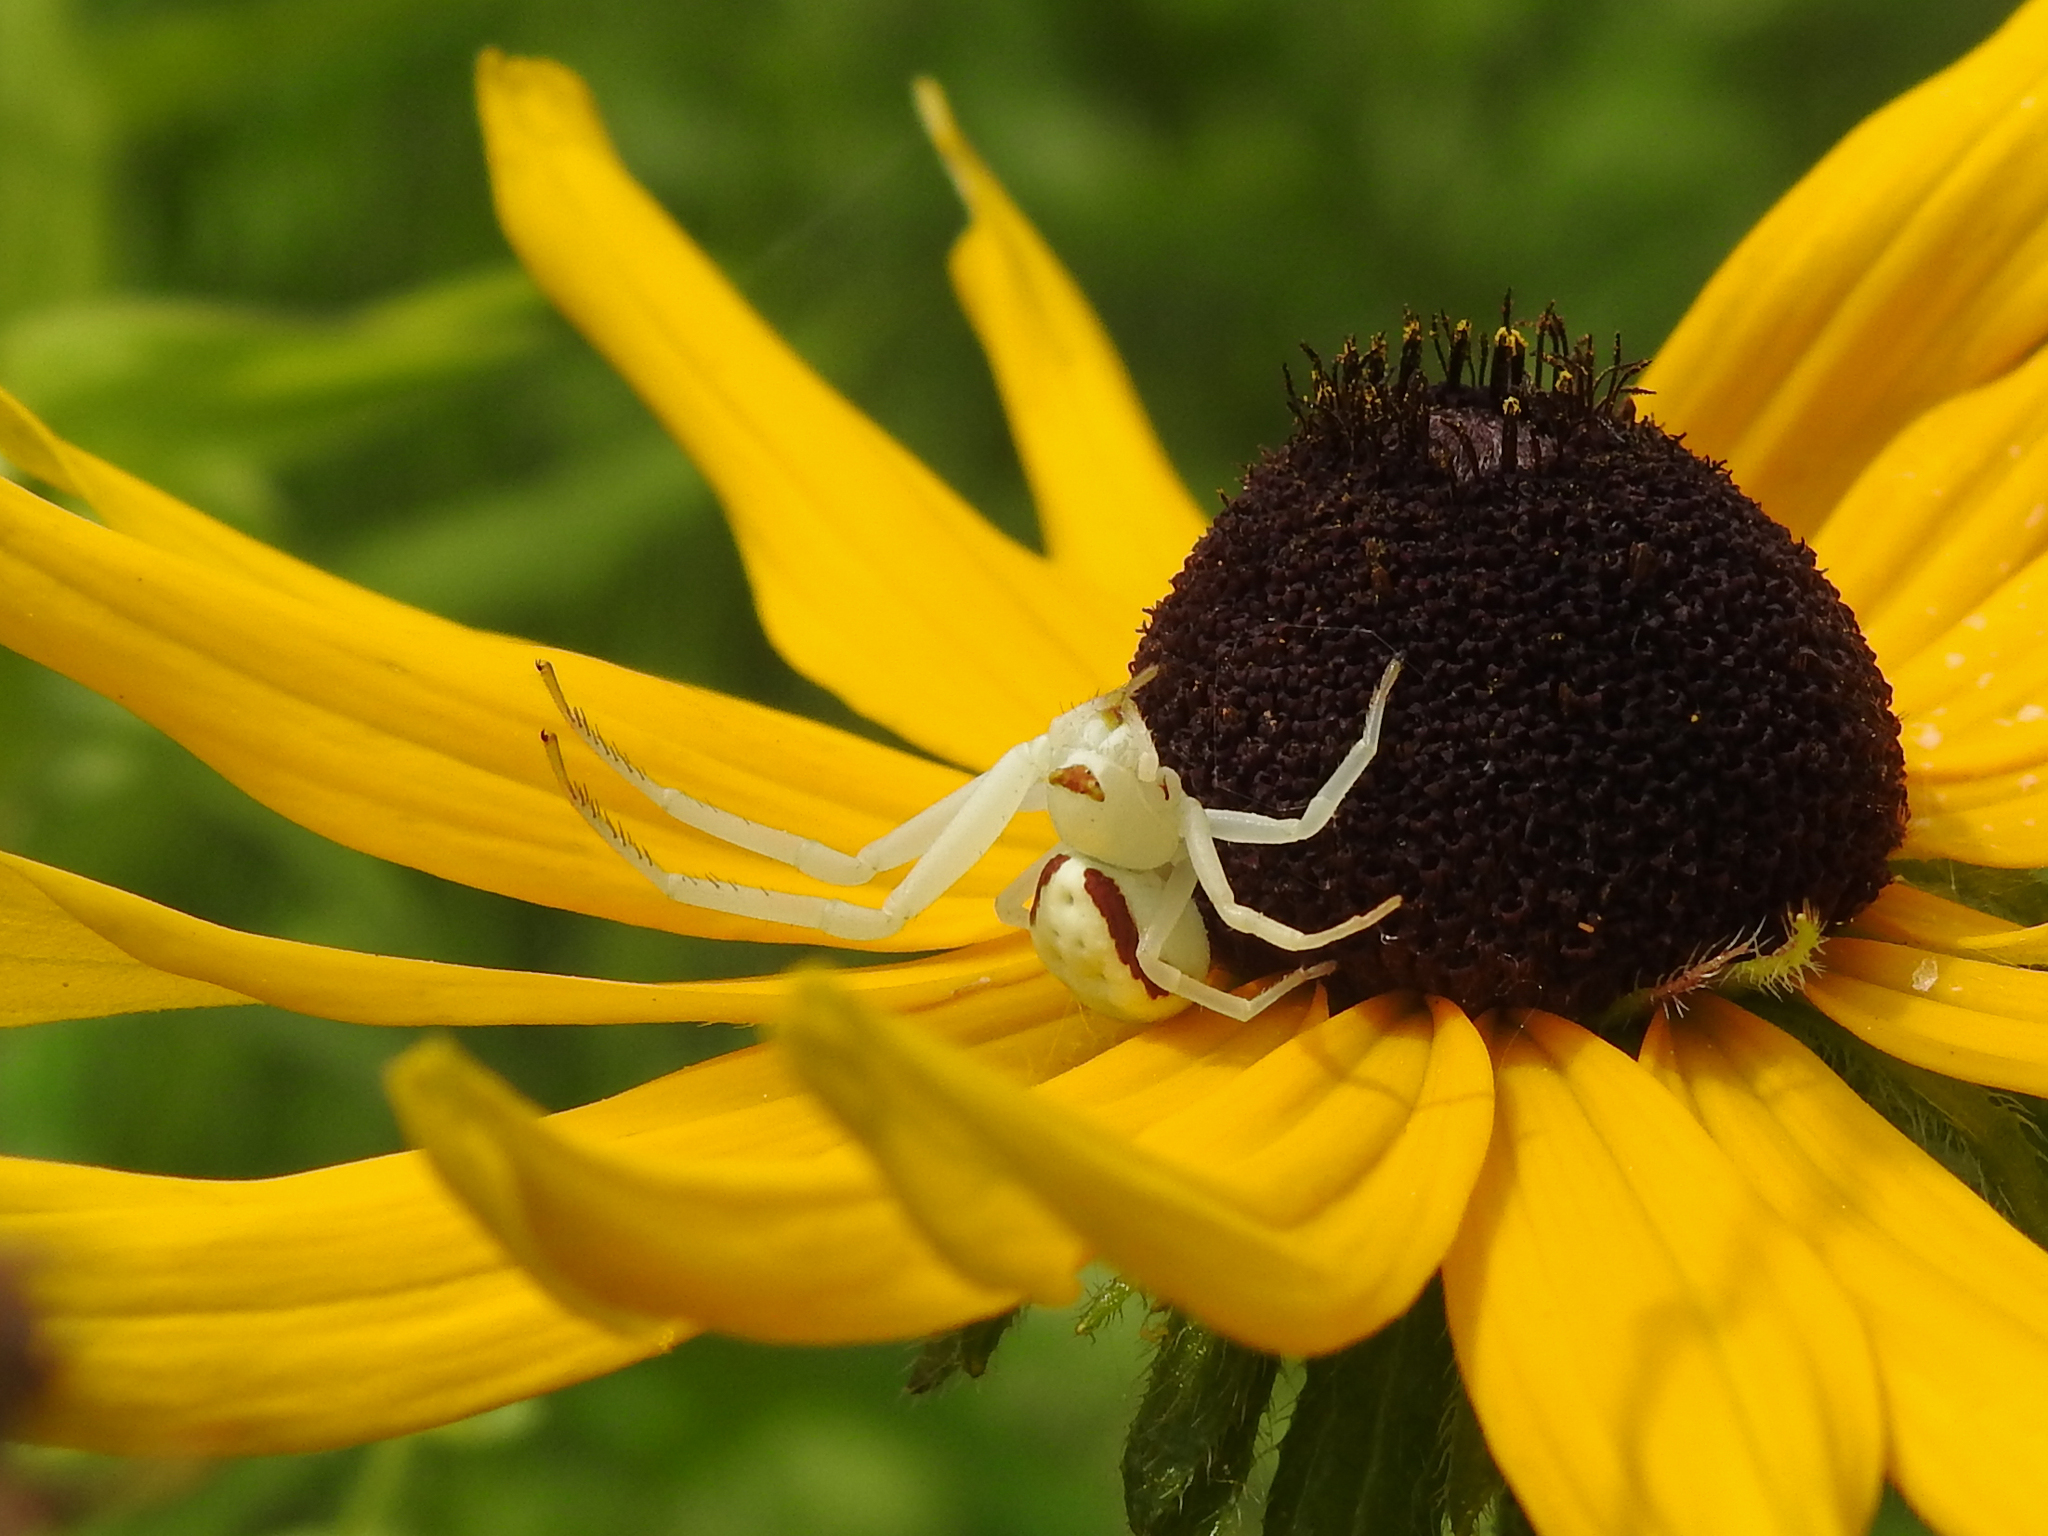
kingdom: Animalia
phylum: Arthropoda
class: Arachnida
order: Araneae
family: Thomisidae
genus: Misumena
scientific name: Misumena vatia
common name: Goldenrod crab spider
